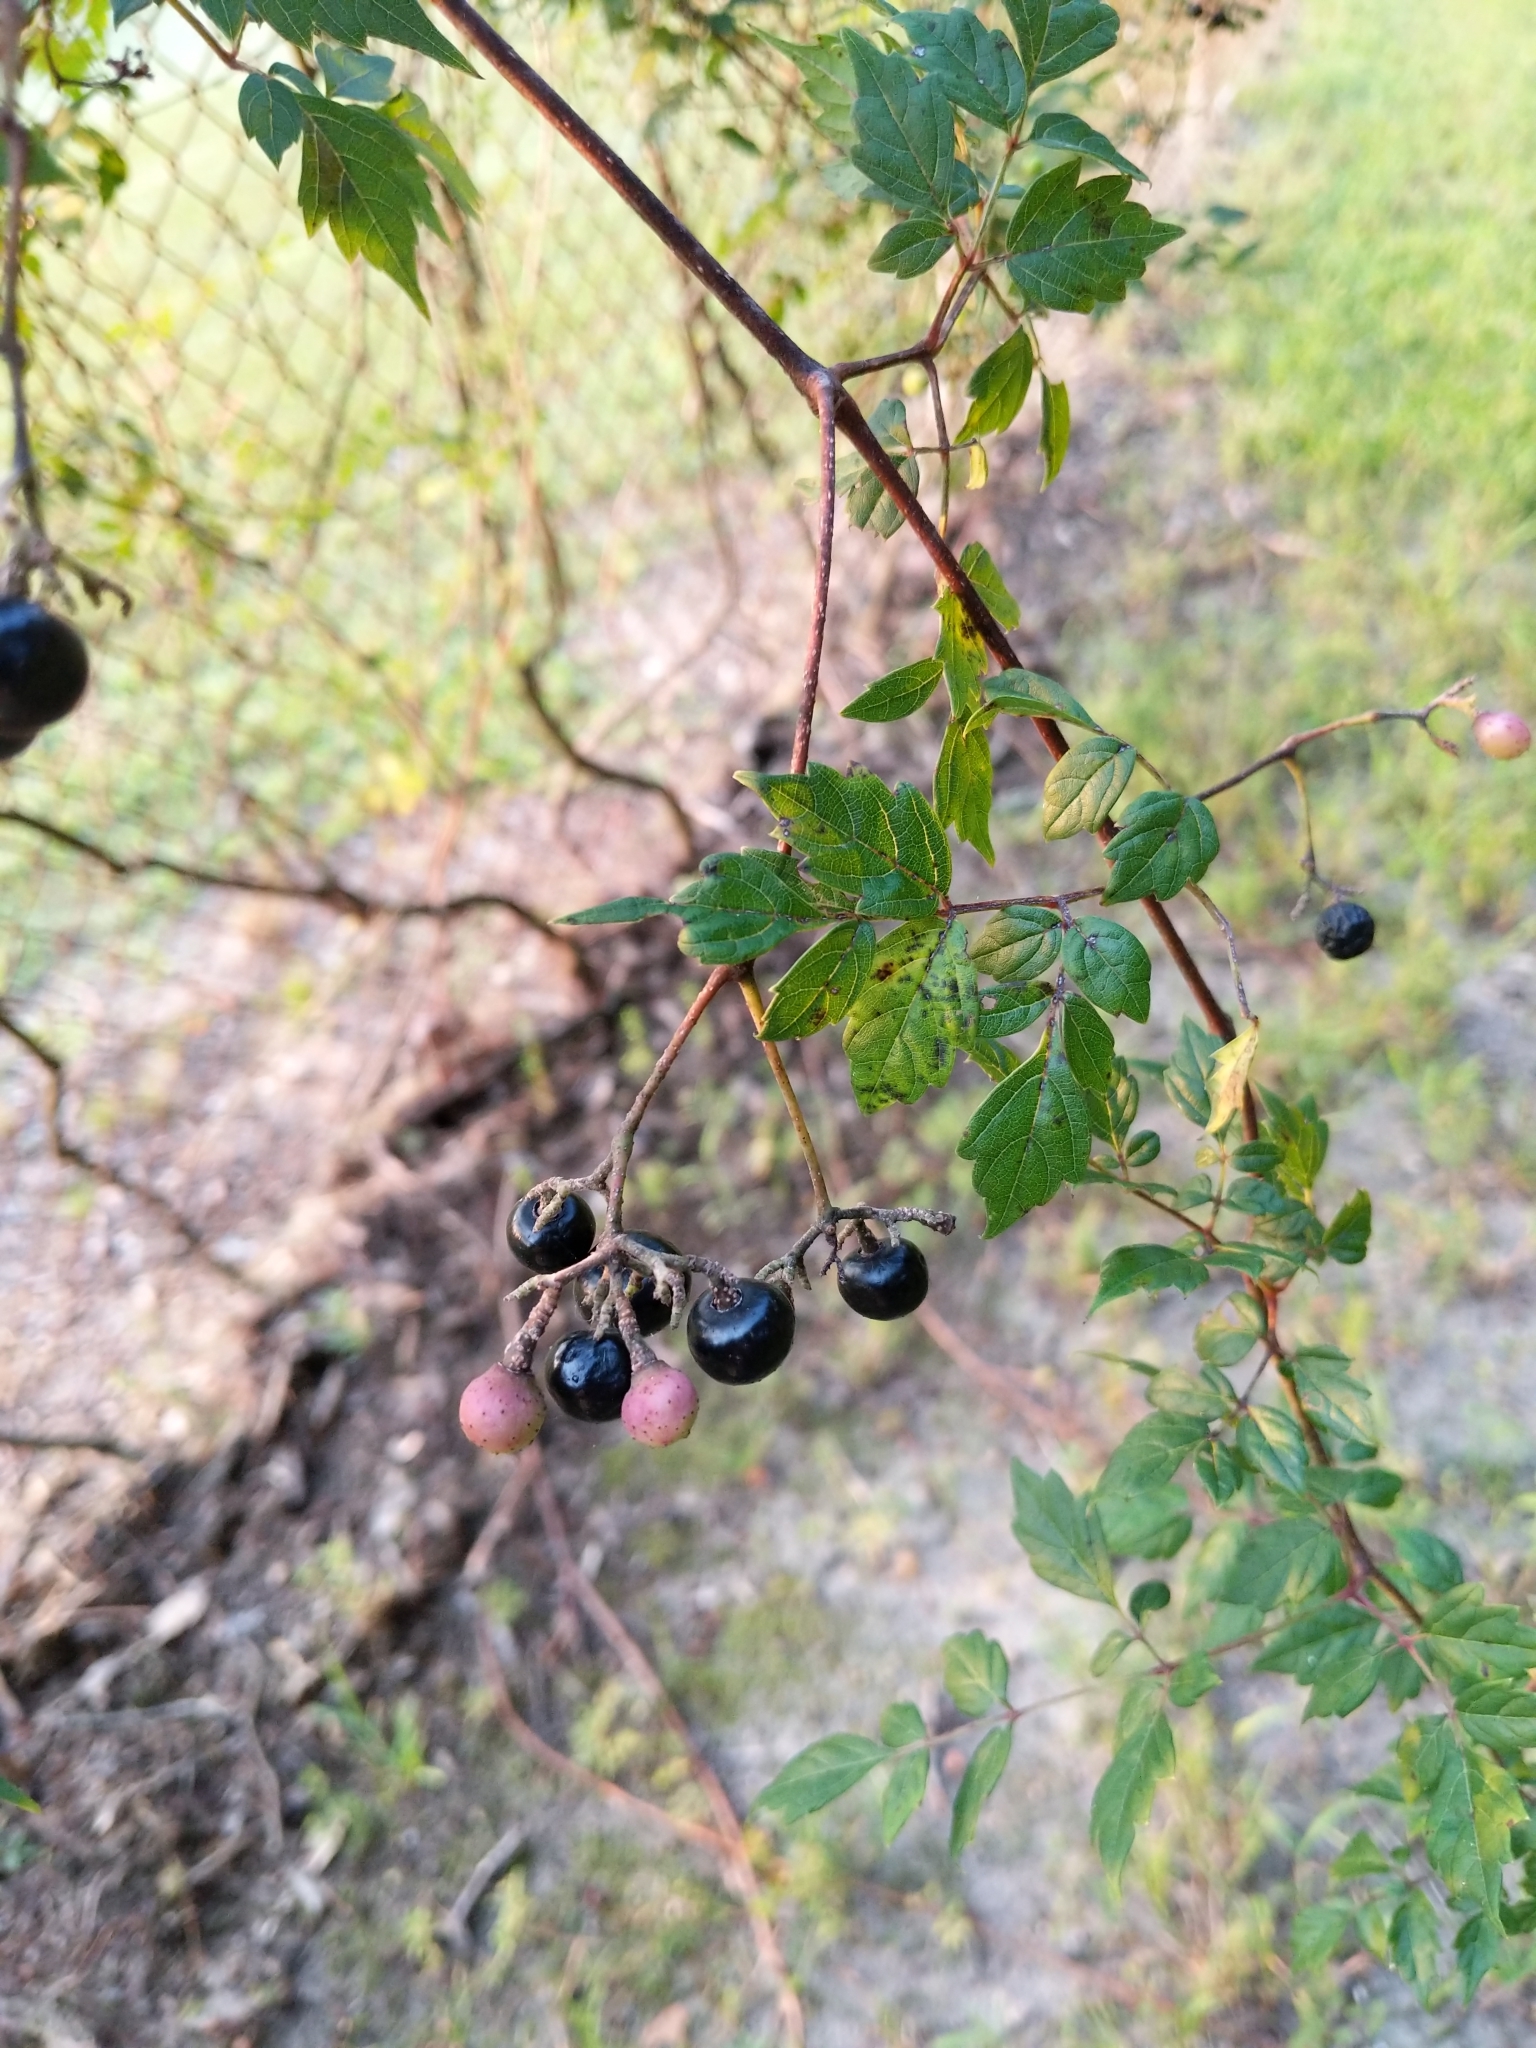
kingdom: Plantae
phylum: Tracheophyta
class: Magnoliopsida
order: Vitales
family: Vitaceae
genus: Nekemias
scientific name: Nekemias arborea
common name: Peppervine
